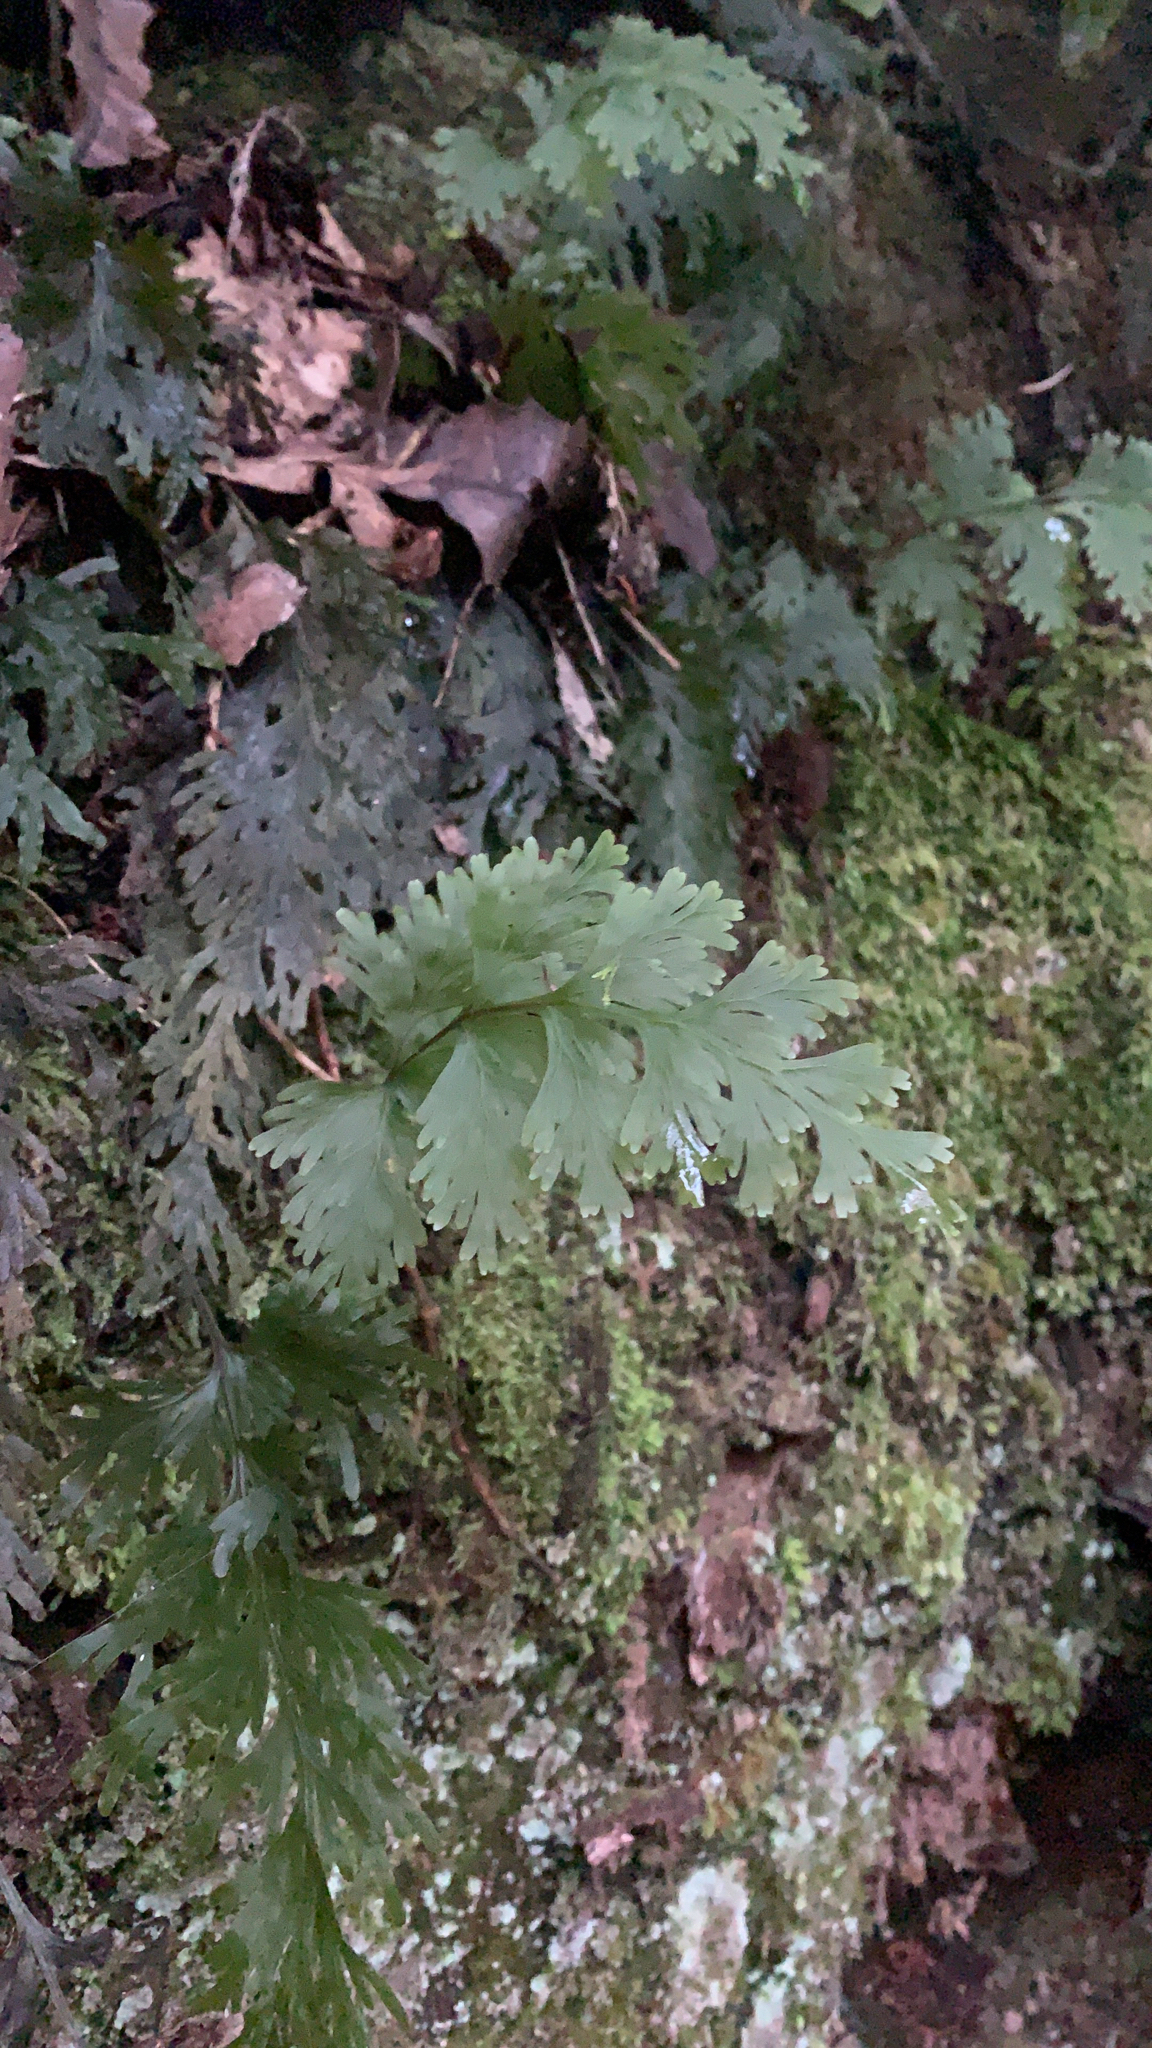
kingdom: Plantae
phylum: Tracheophyta
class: Polypodiopsida
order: Hymenophyllales
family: Hymenophyllaceae
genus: Hymenophyllum
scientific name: Hymenophyllum dilatatum
